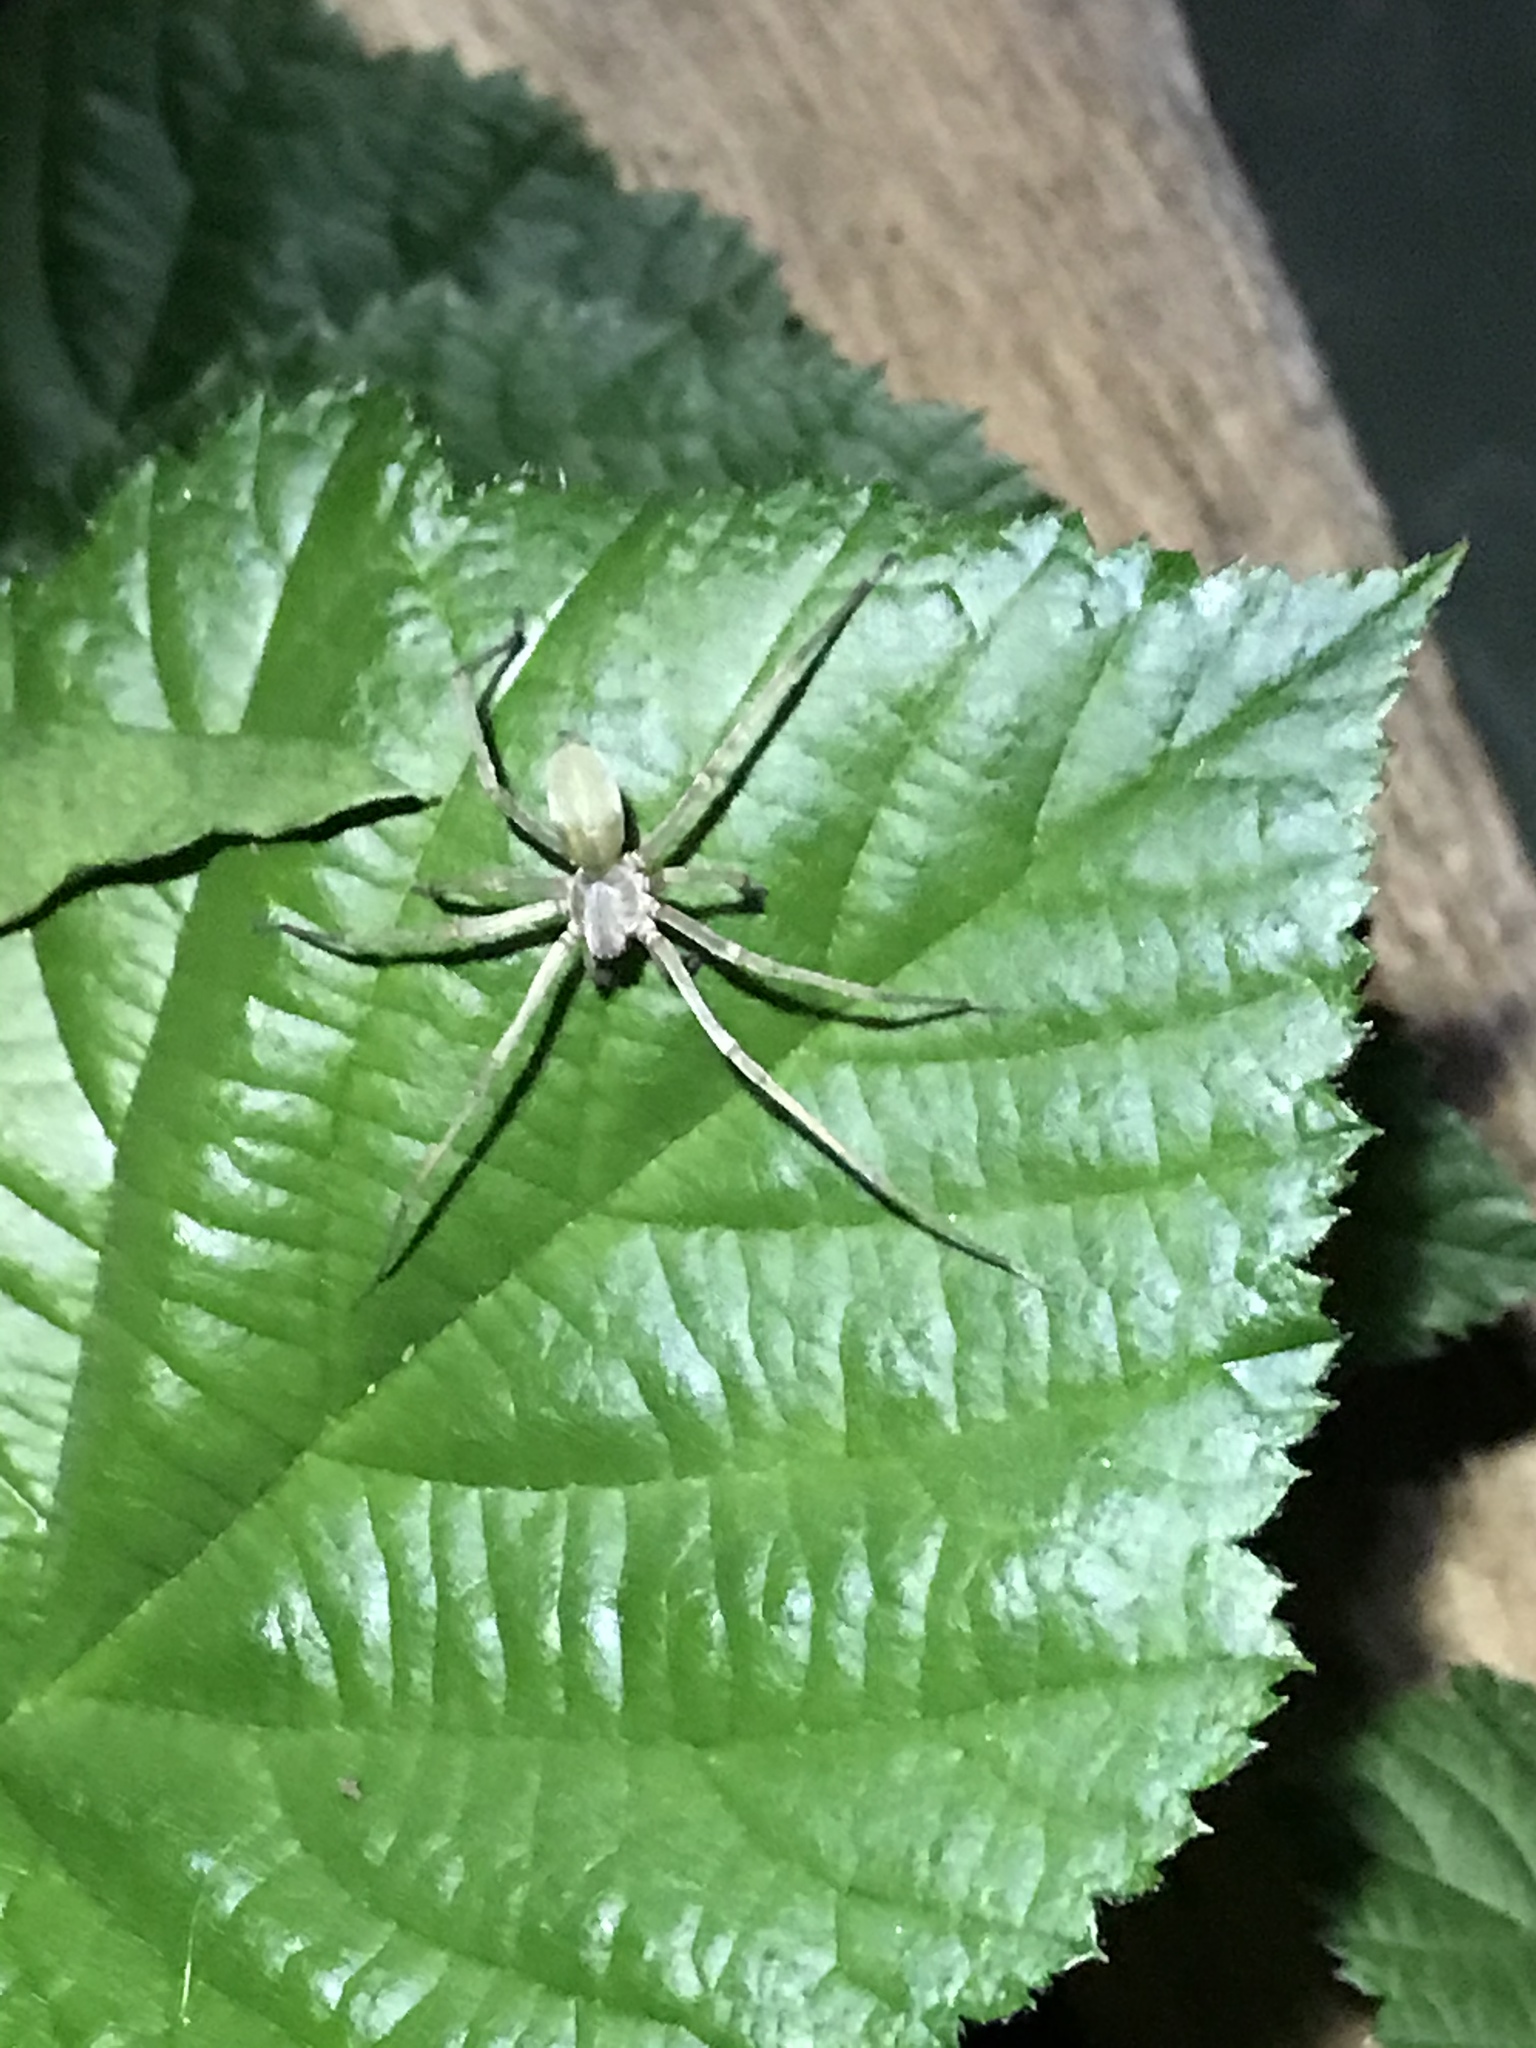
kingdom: Animalia
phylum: Arthropoda
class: Arachnida
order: Araneae
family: Cheiracanthiidae
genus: Cheiracanthium
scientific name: Cheiracanthium
